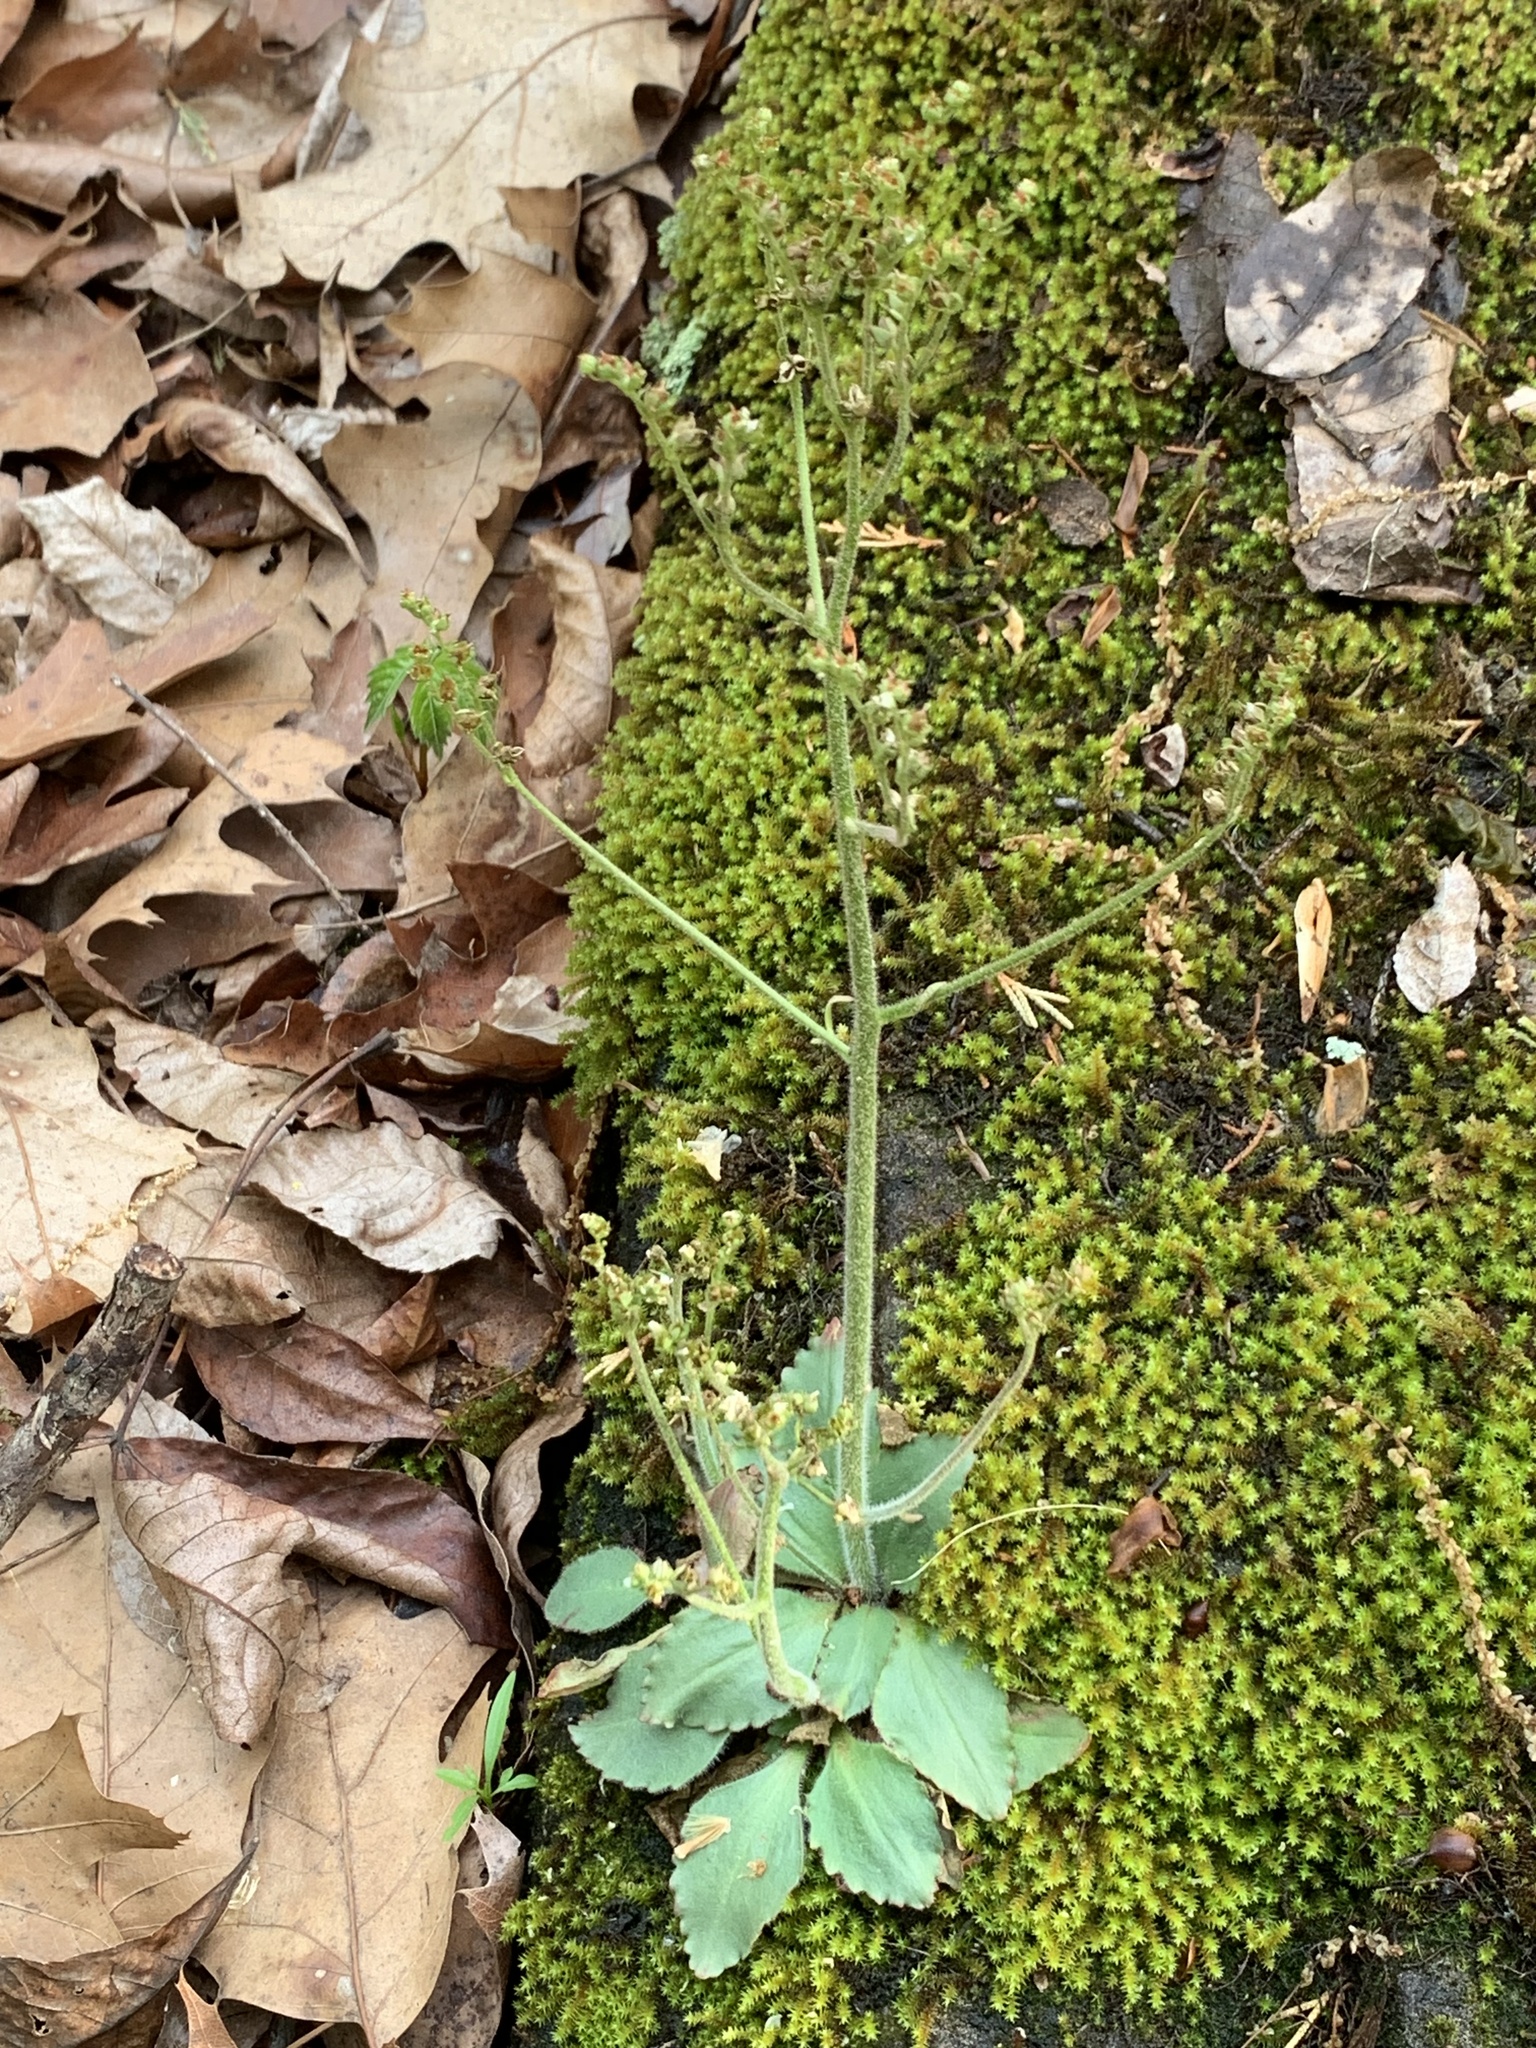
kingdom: Plantae
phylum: Tracheophyta
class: Magnoliopsida
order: Saxifragales
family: Saxifragaceae
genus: Micranthes
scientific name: Micranthes virginiensis
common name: Early saxifrage
